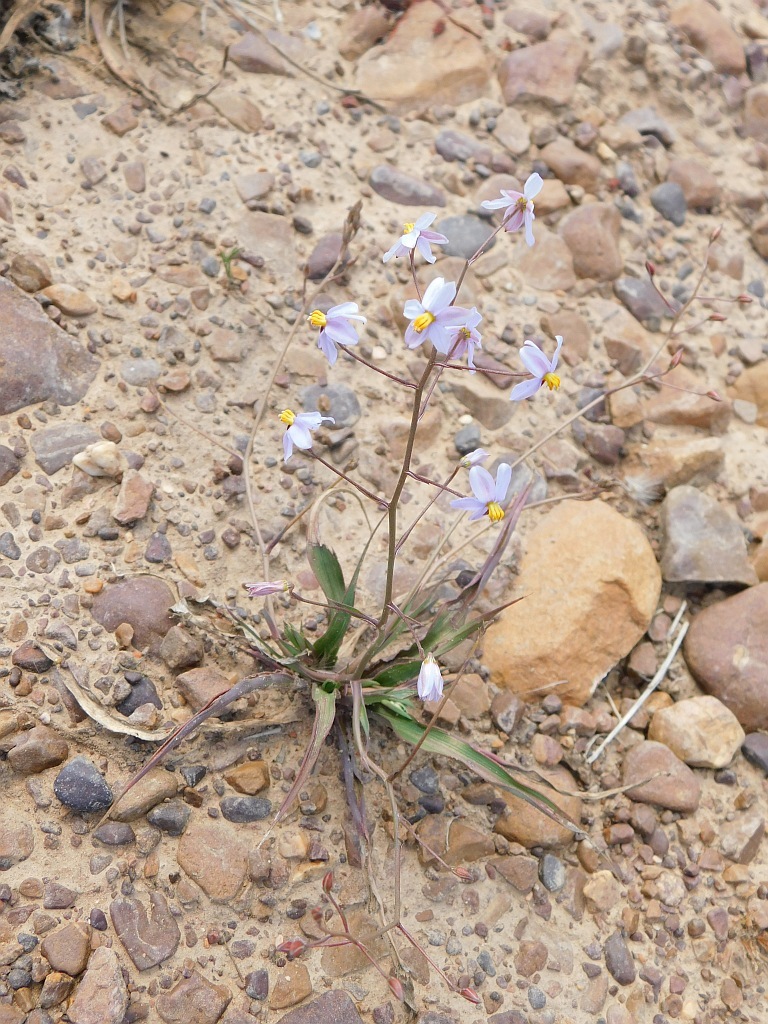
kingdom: Plantae
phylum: Tracheophyta
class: Liliopsida
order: Asparagales
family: Tecophilaeaceae
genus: Cyanella
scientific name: Cyanella hyacinthoides
